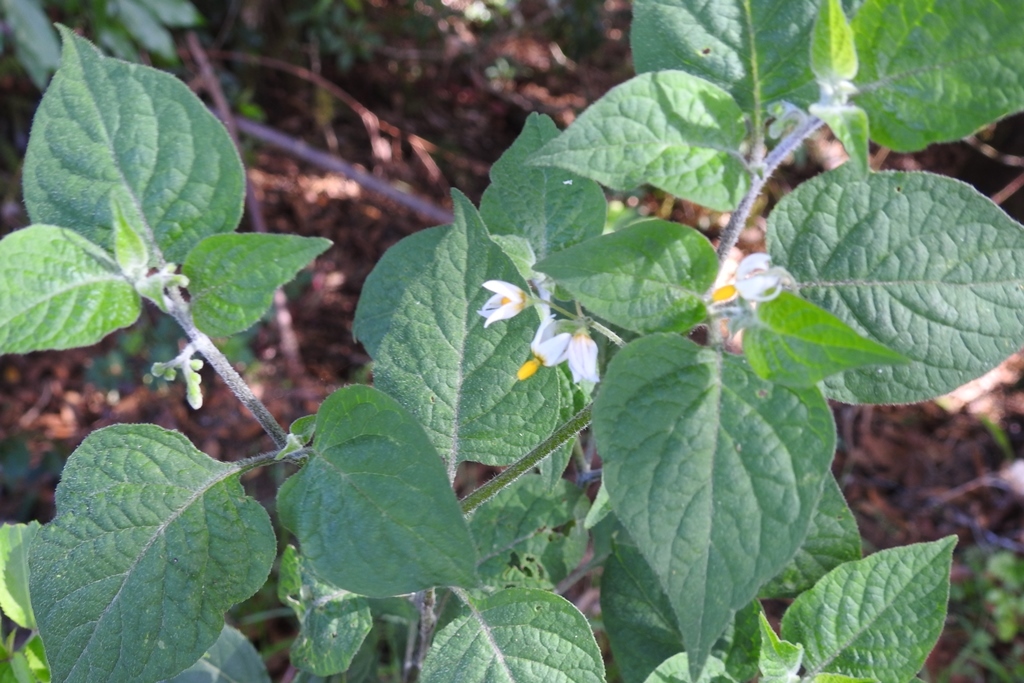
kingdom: Plantae
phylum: Tracheophyta
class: Magnoliopsida
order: Solanales
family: Solanaceae
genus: Solanum
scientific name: Solanum nigrescens
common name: Divine nightshade
